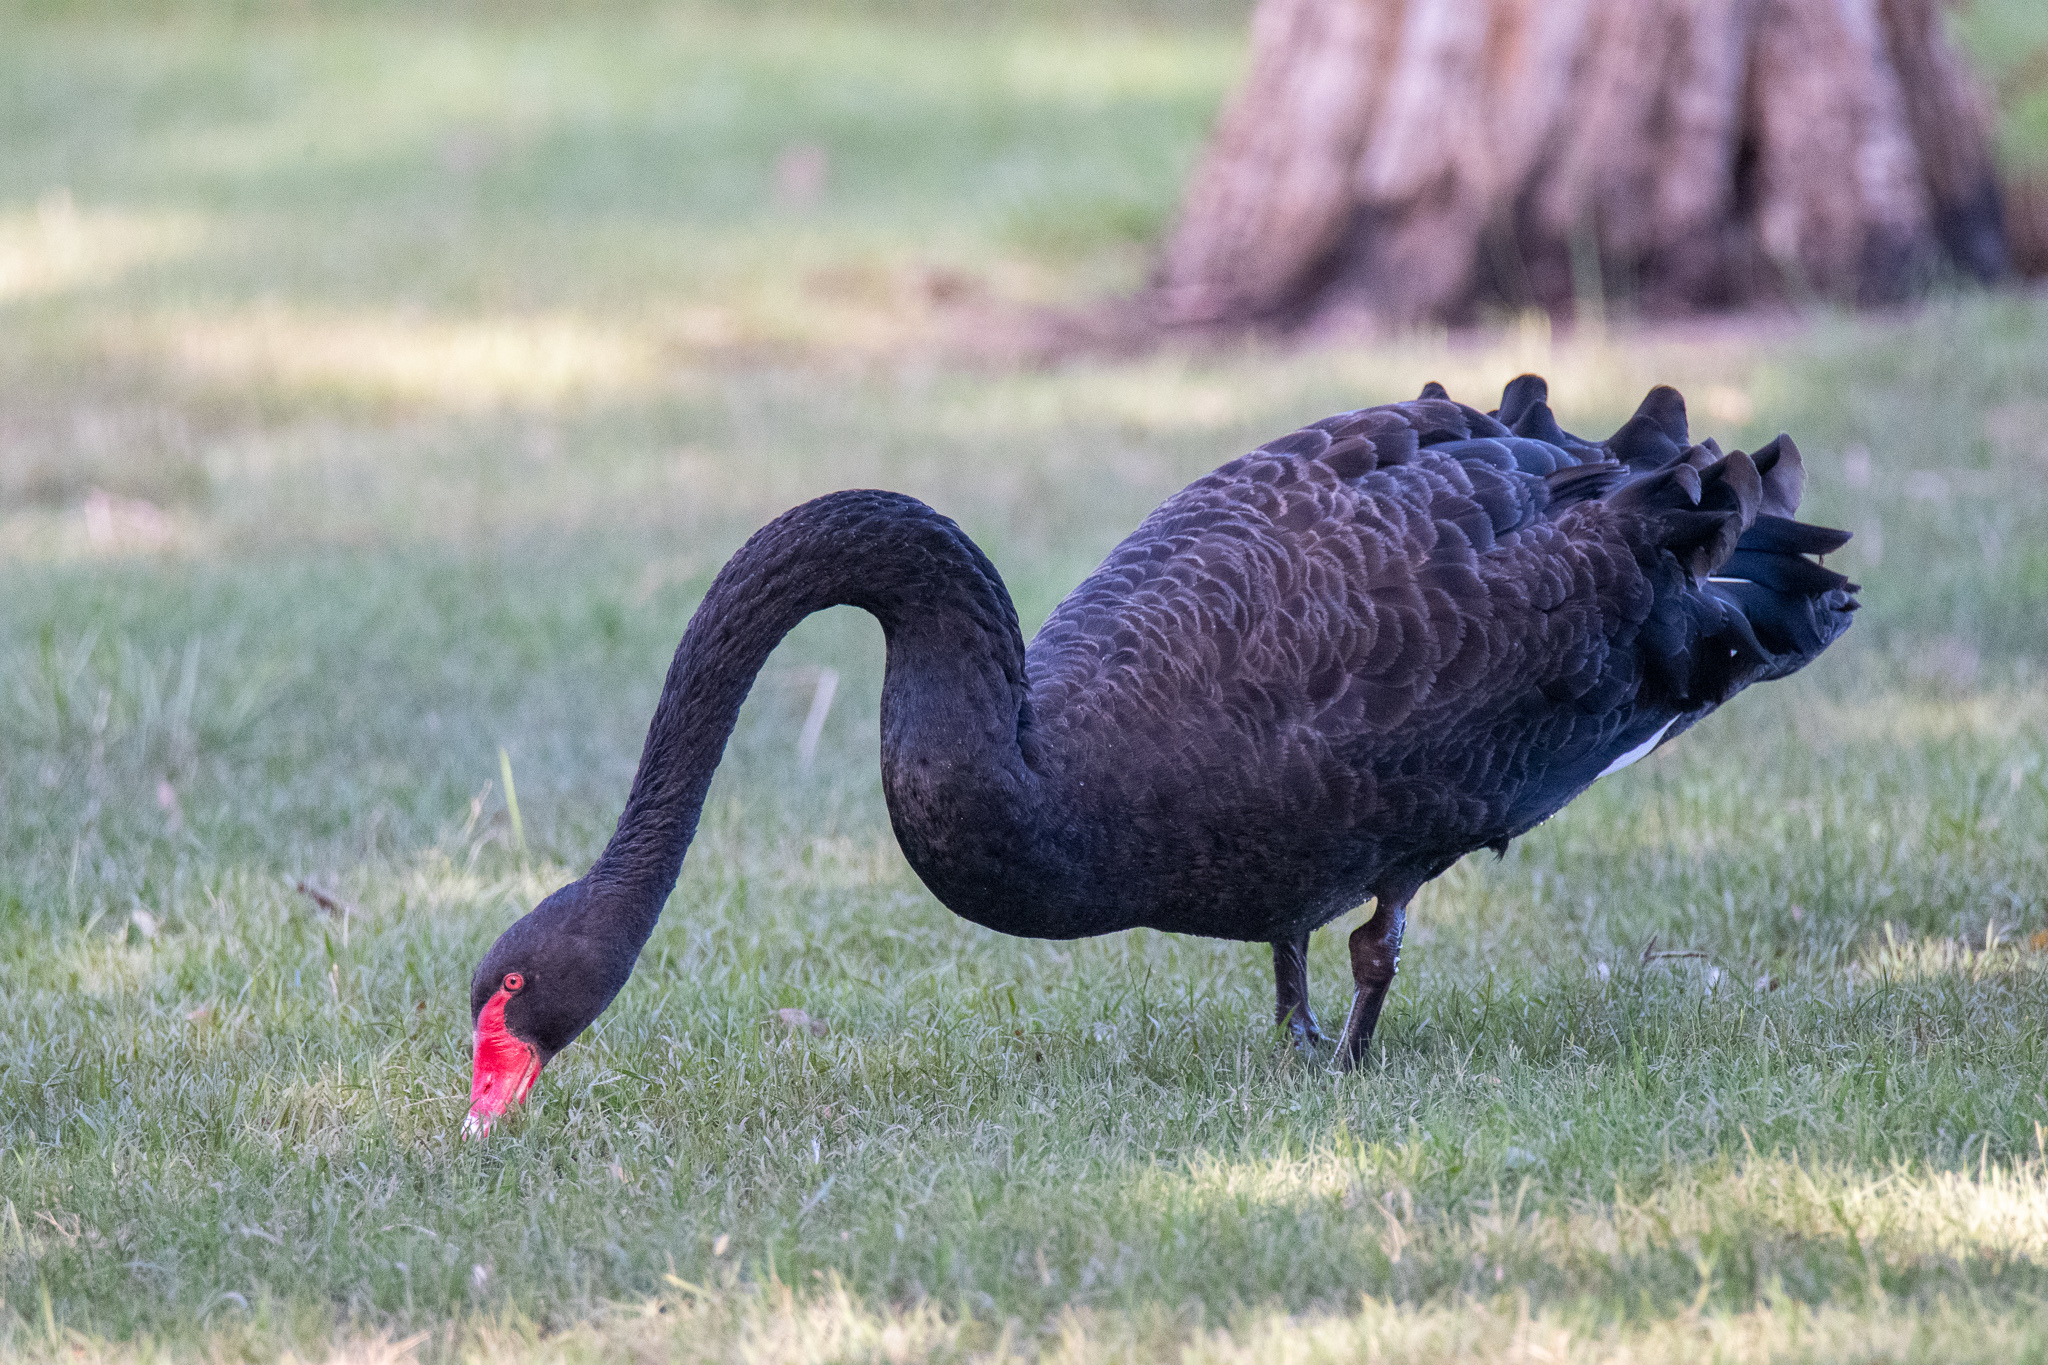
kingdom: Animalia
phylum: Chordata
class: Aves
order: Anseriformes
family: Anatidae
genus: Cygnus
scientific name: Cygnus atratus
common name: Black swan
